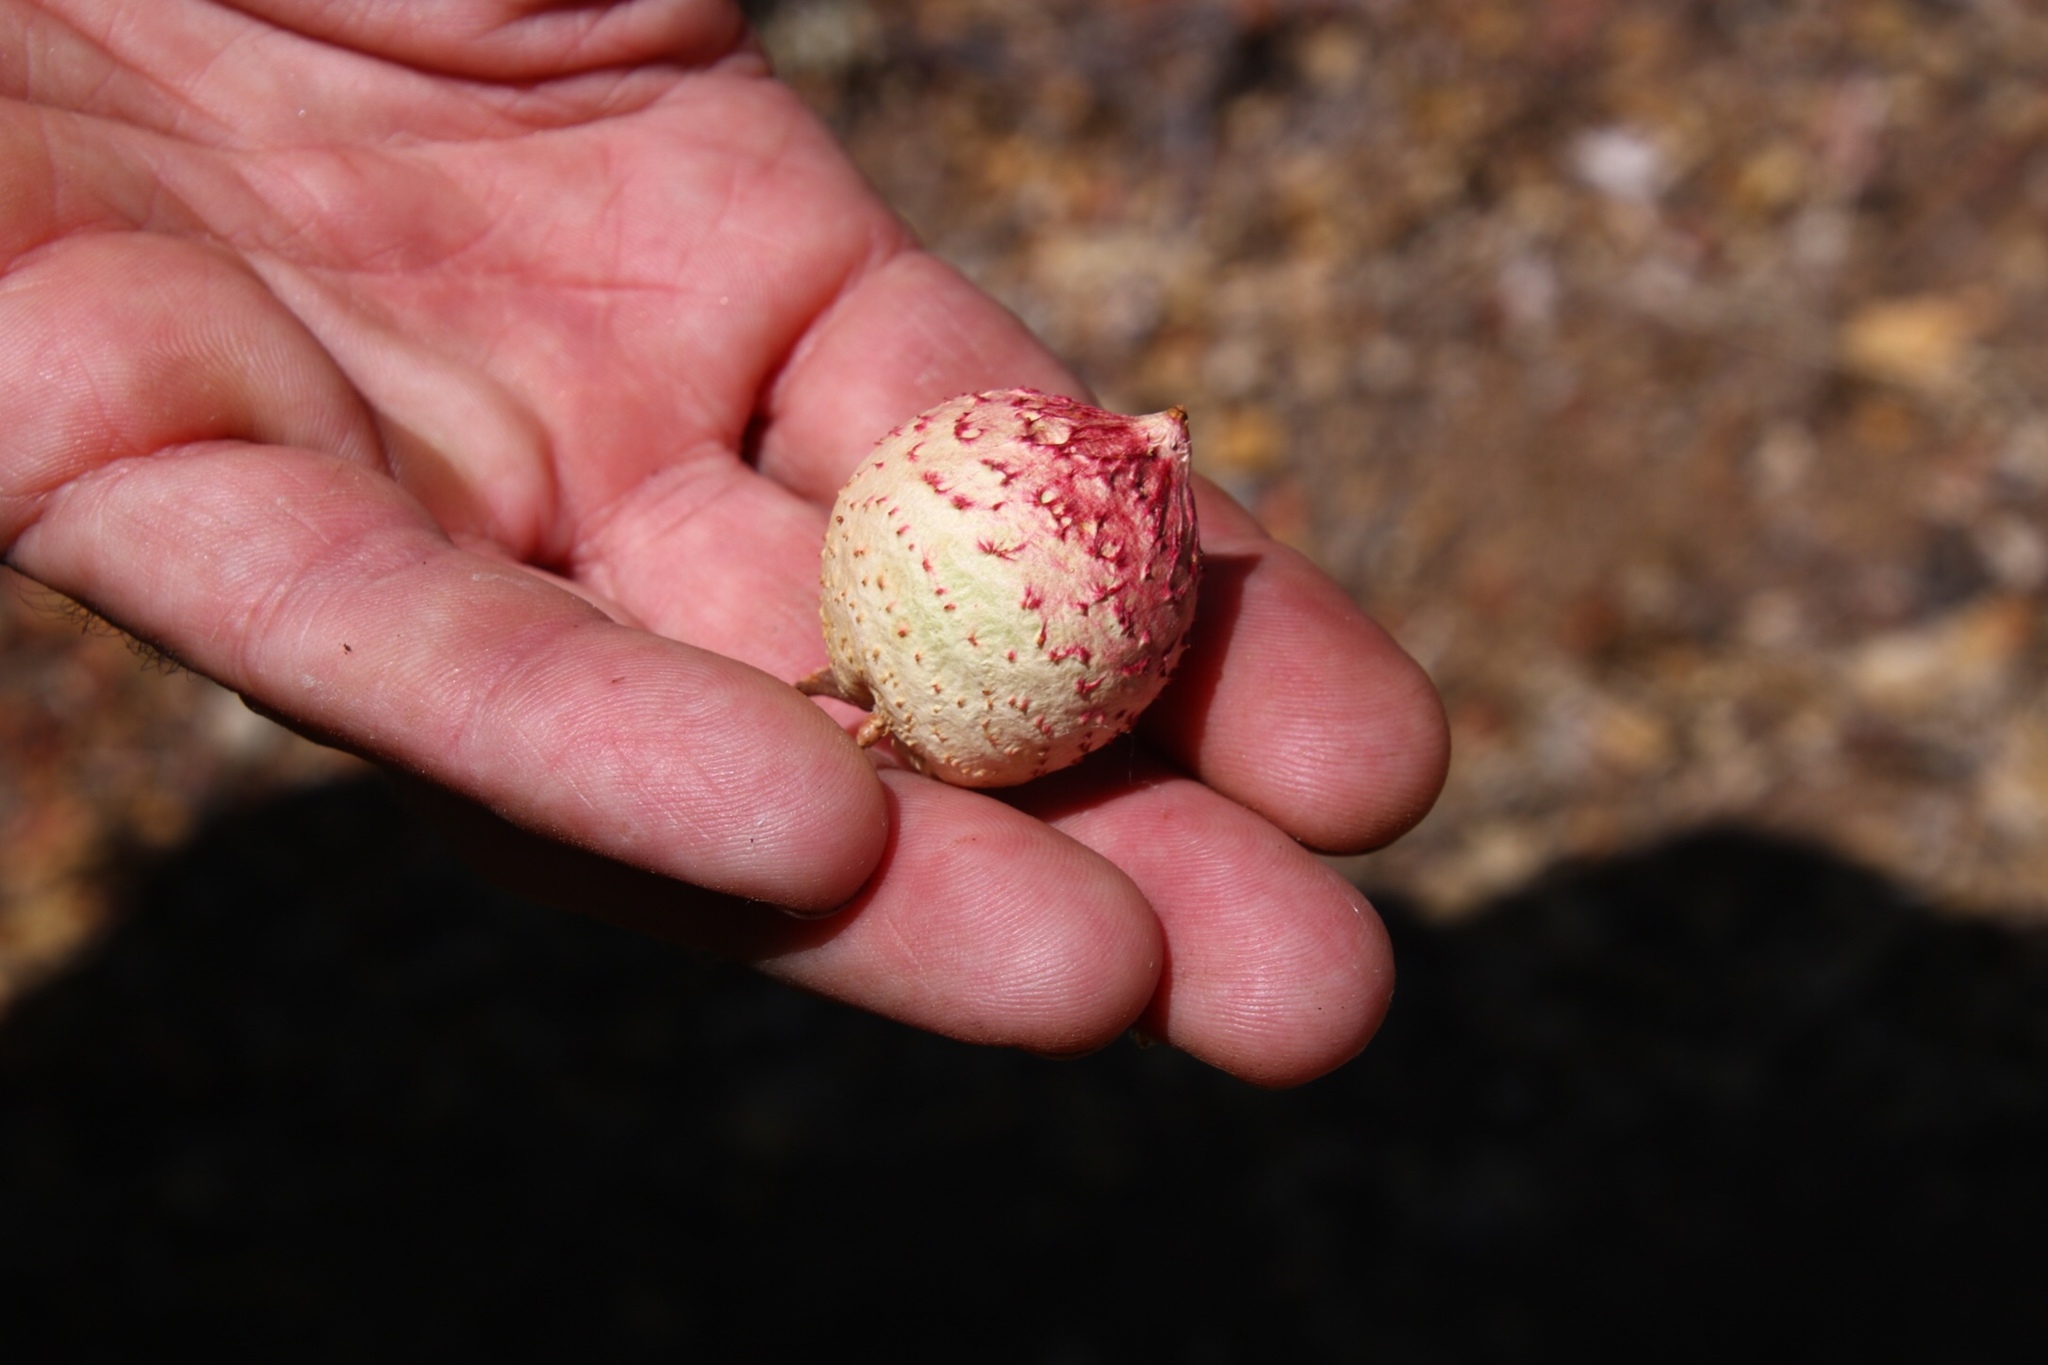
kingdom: Animalia
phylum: Arthropoda
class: Insecta
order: Hymenoptera
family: Cynipidae
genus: Amphibolips
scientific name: Amphibolips quercuspomiformis
